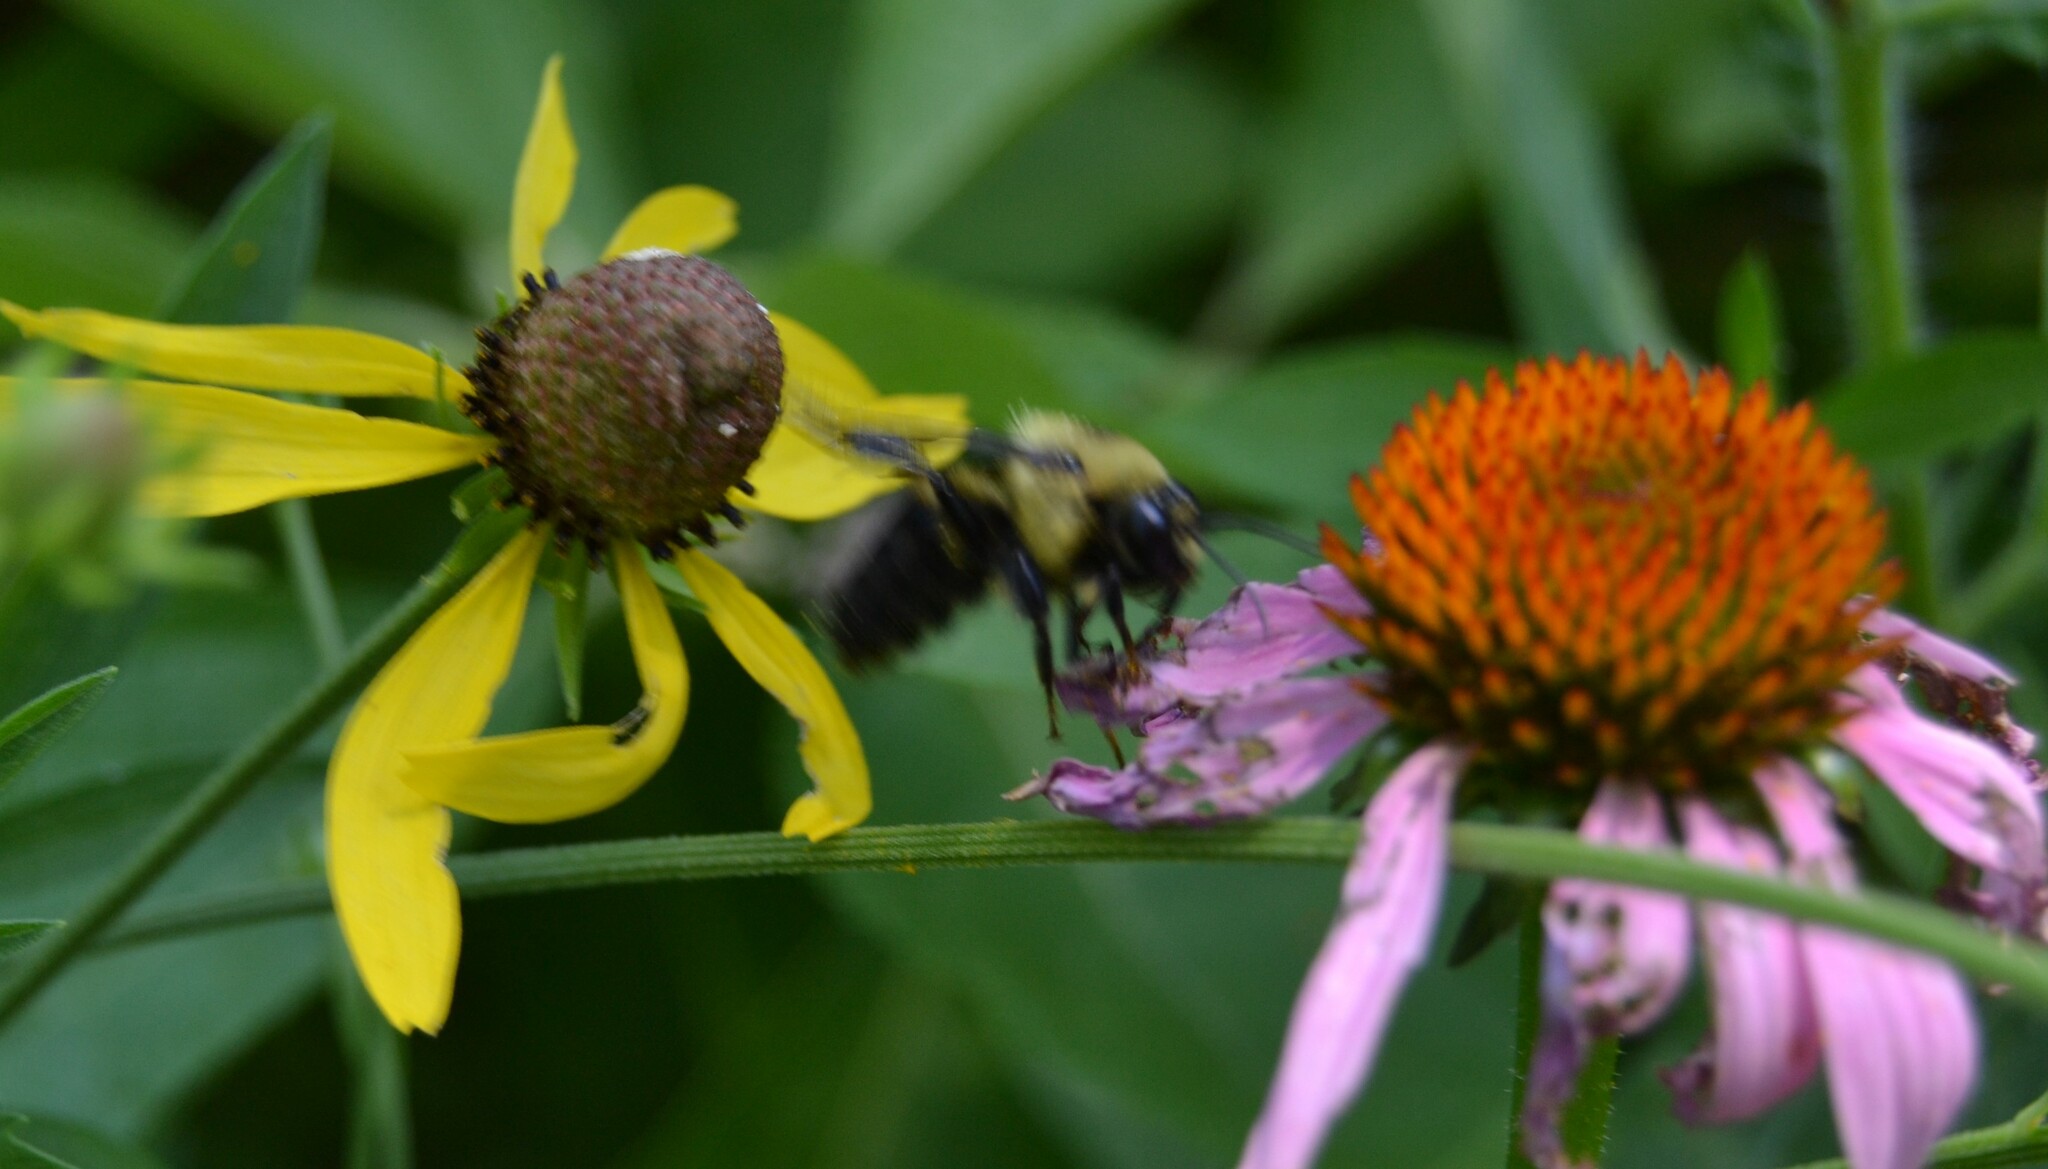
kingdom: Animalia
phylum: Arthropoda
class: Insecta
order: Hymenoptera
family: Apidae
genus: Bombus
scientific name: Bombus impatiens
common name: Common eastern bumble bee
